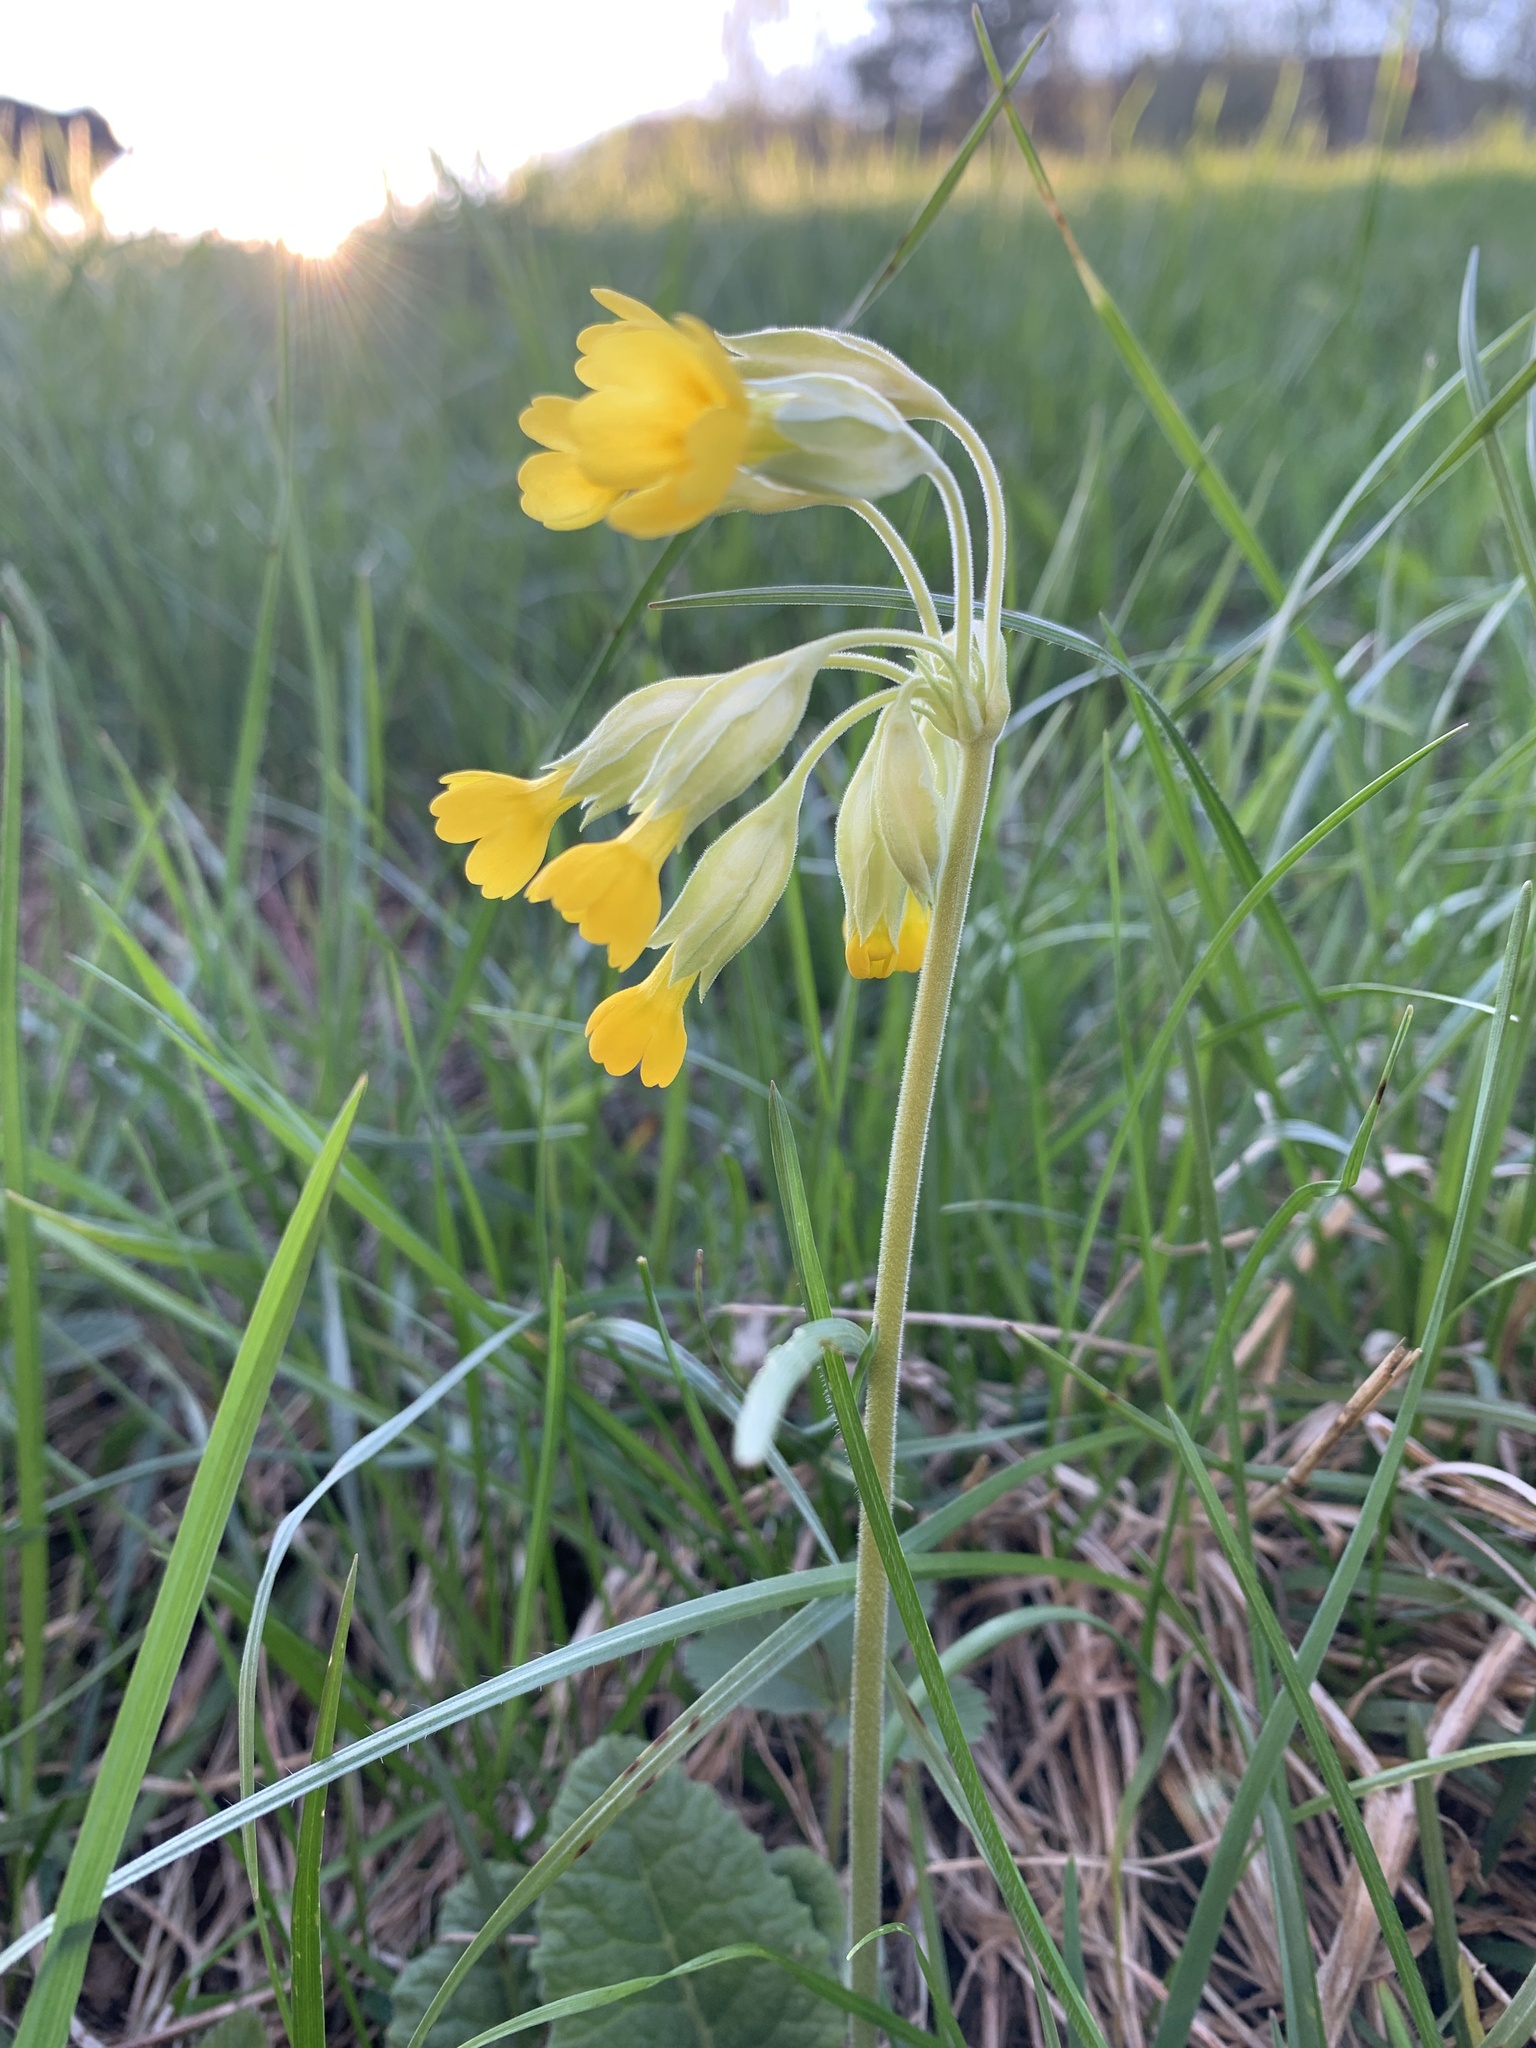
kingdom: Plantae
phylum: Tracheophyta
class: Magnoliopsida
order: Ericales
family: Primulaceae
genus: Primula
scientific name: Primula veris
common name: Cowslip
